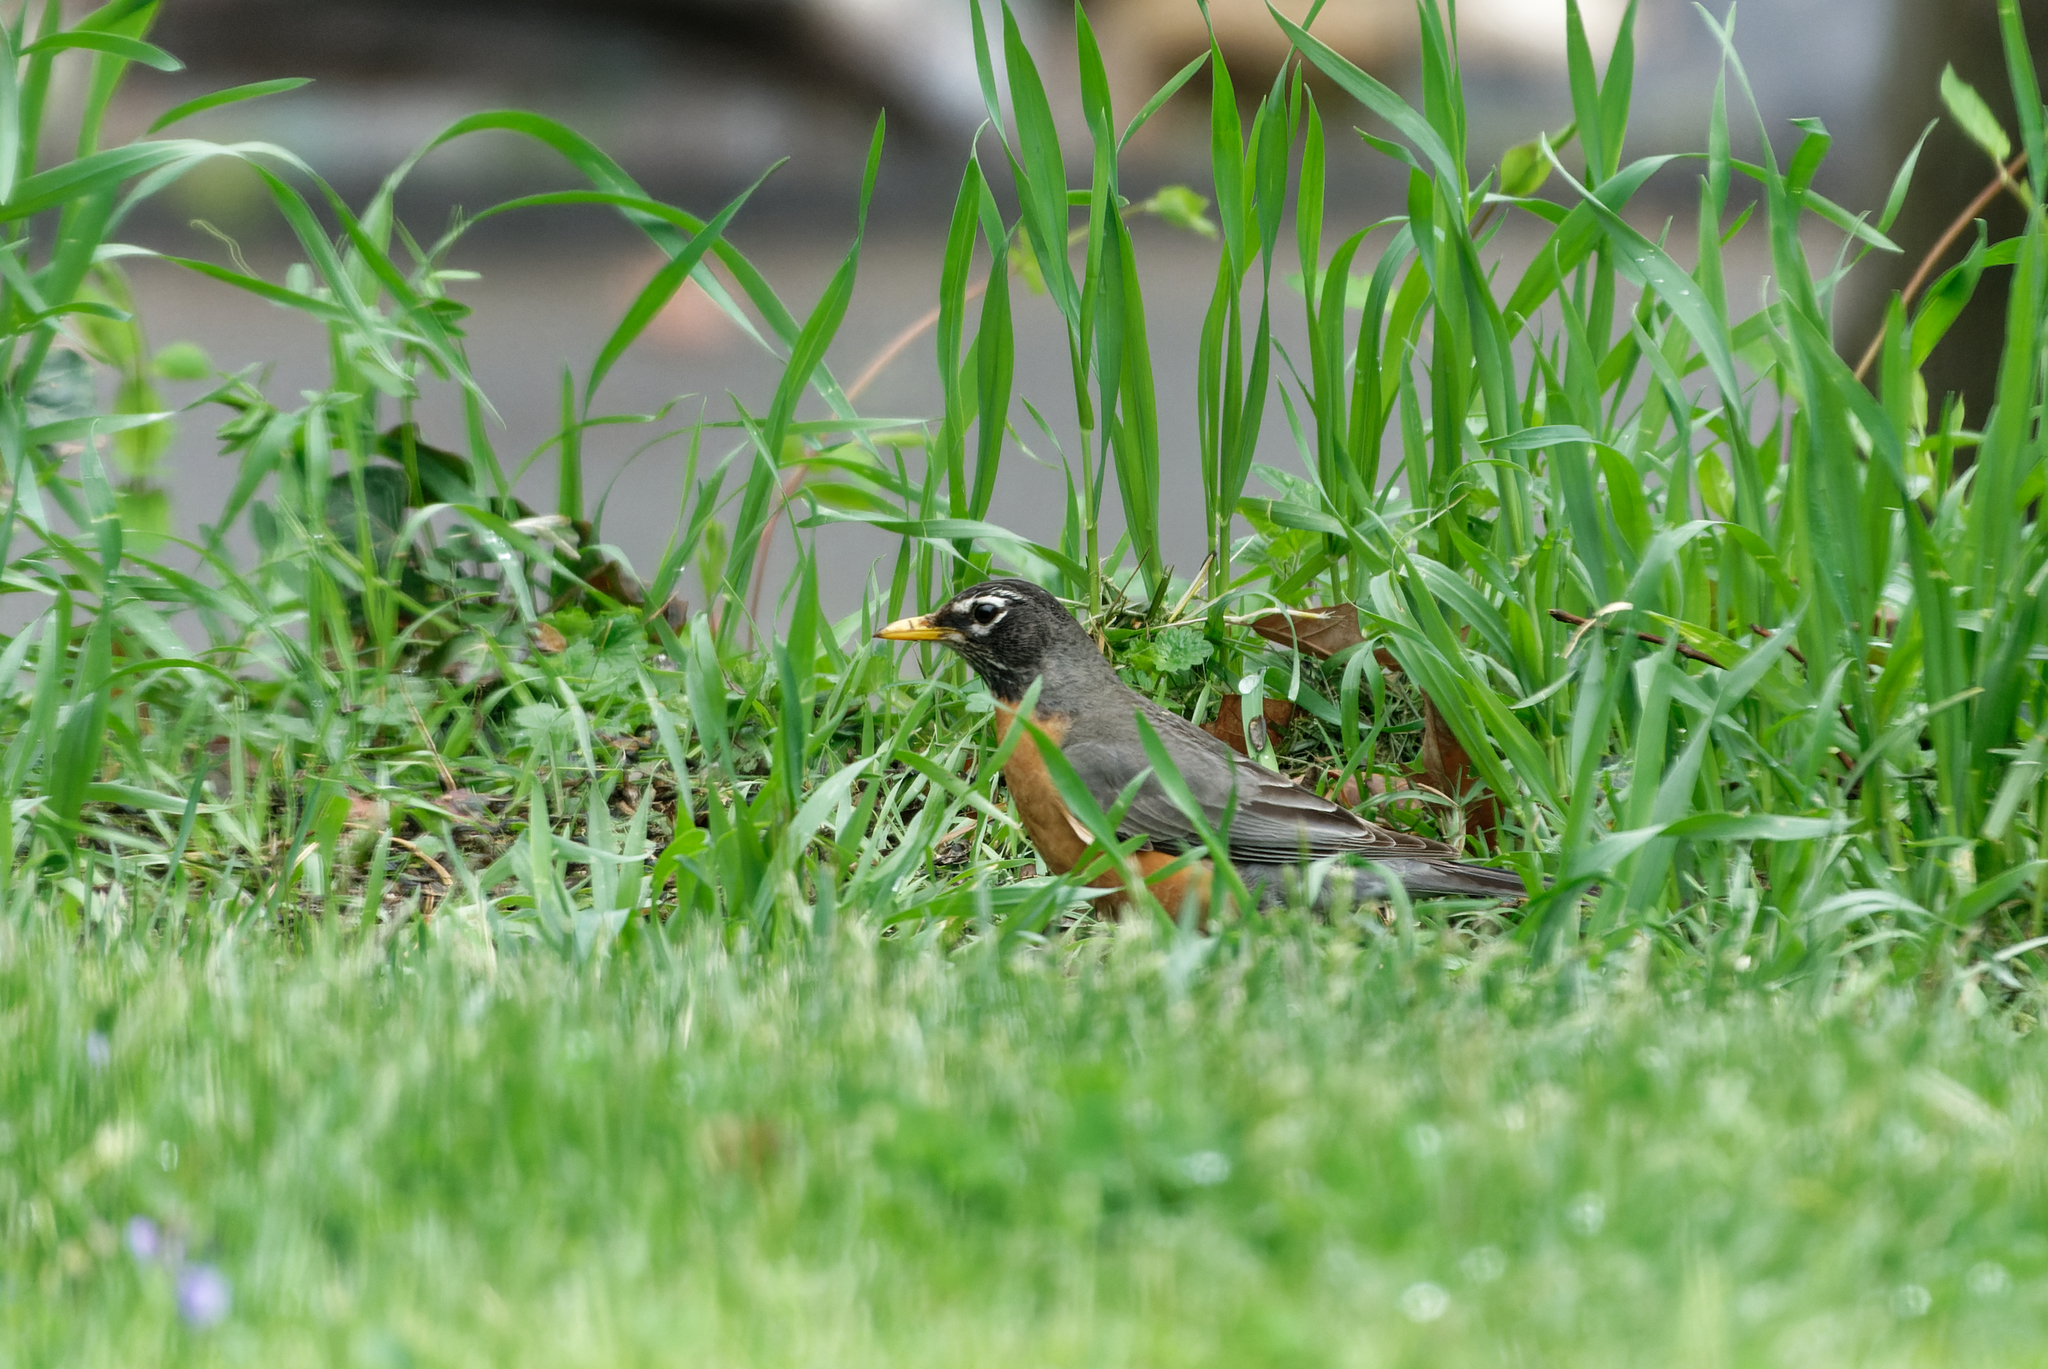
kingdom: Animalia
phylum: Chordata
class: Aves
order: Passeriformes
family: Turdidae
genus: Turdus
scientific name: Turdus migratorius
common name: American robin
